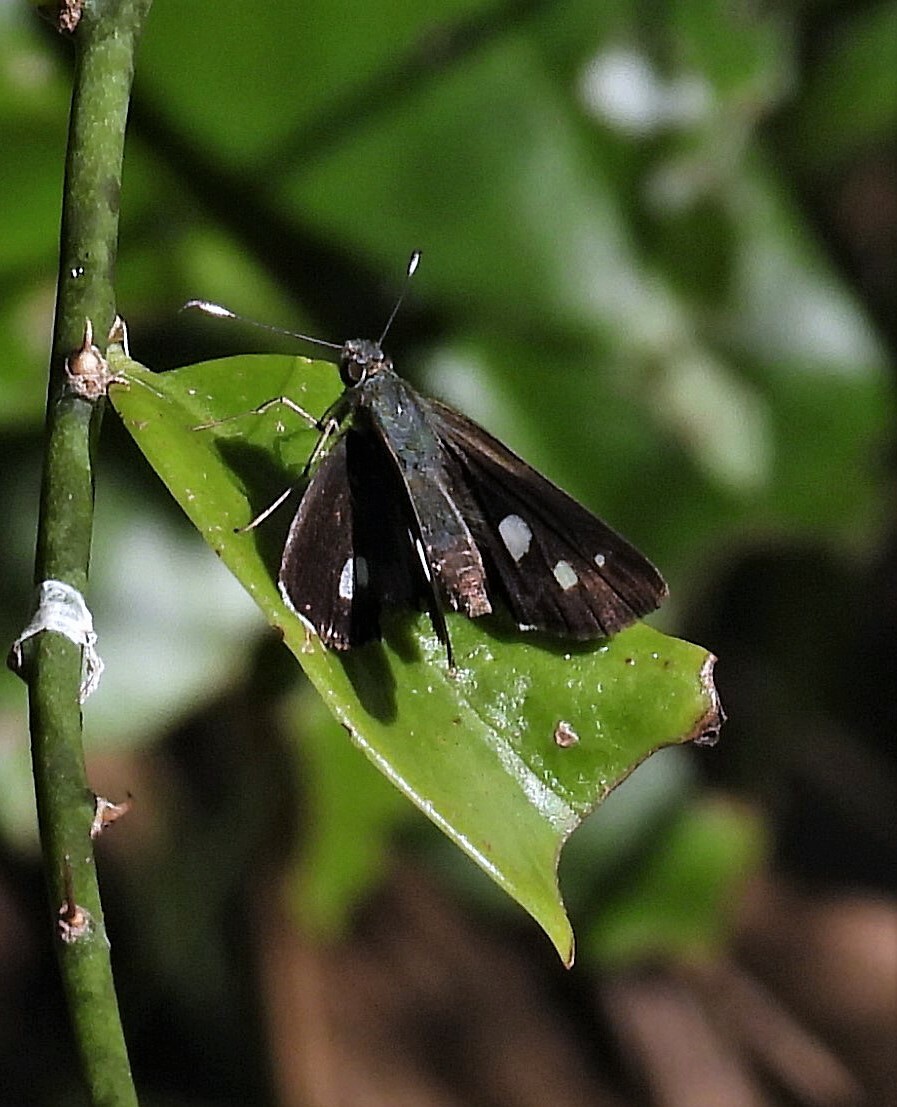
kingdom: Animalia
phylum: Arthropoda
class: Insecta
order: Lepidoptera
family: Hesperiidae
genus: Justinia
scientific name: Justinia kora
